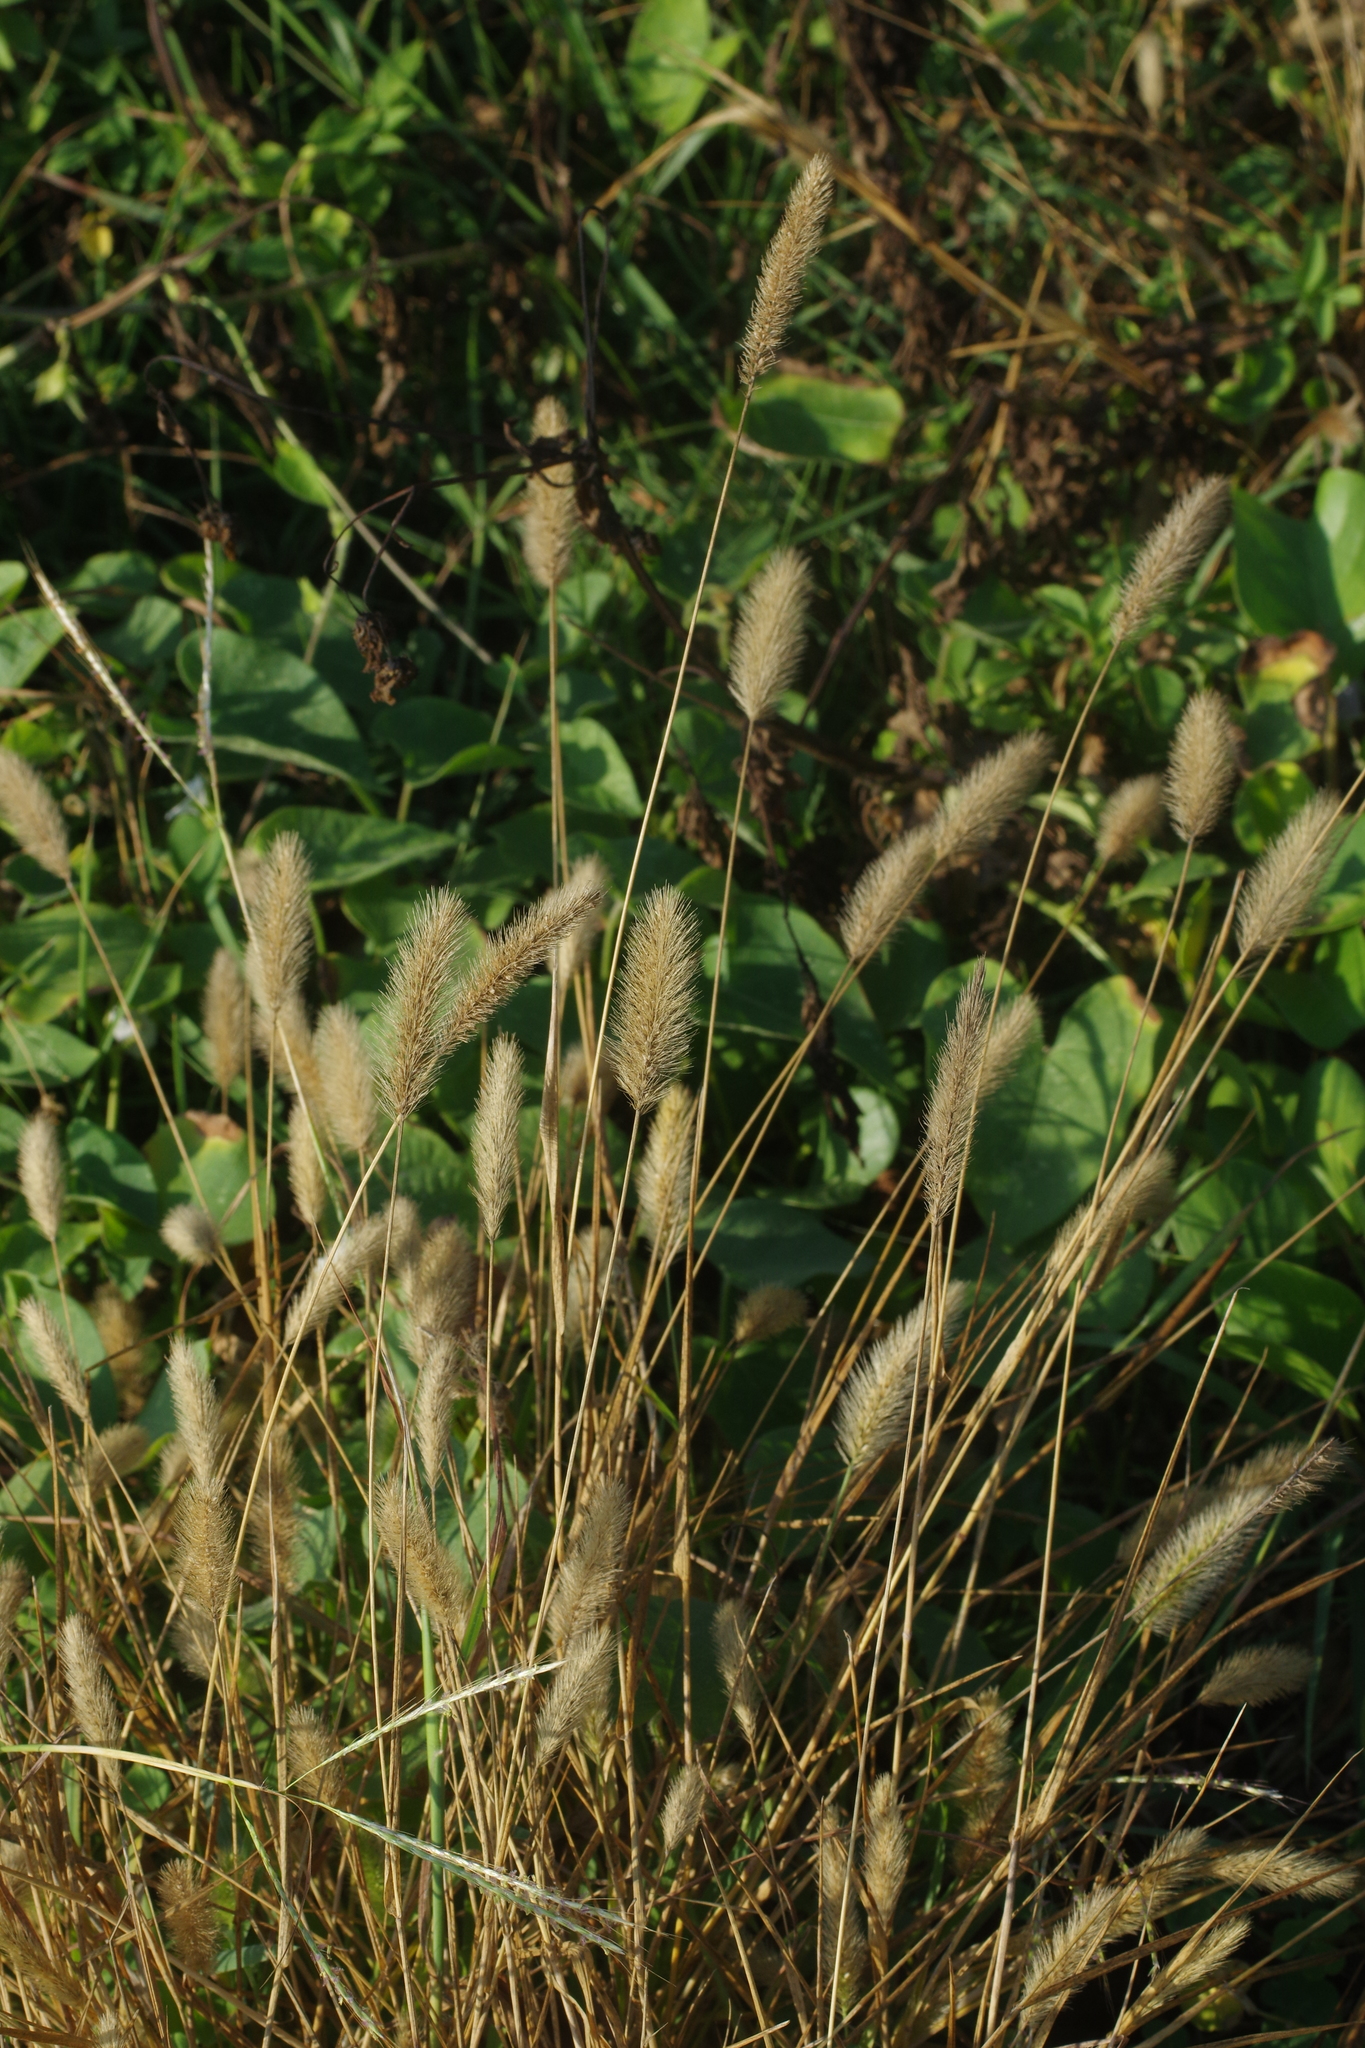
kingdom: Plantae
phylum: Tracheophyta
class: Liliopsida
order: Poales
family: Poaceae
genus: Setaria
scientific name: Setaria viridis
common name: Green bristlegrass
